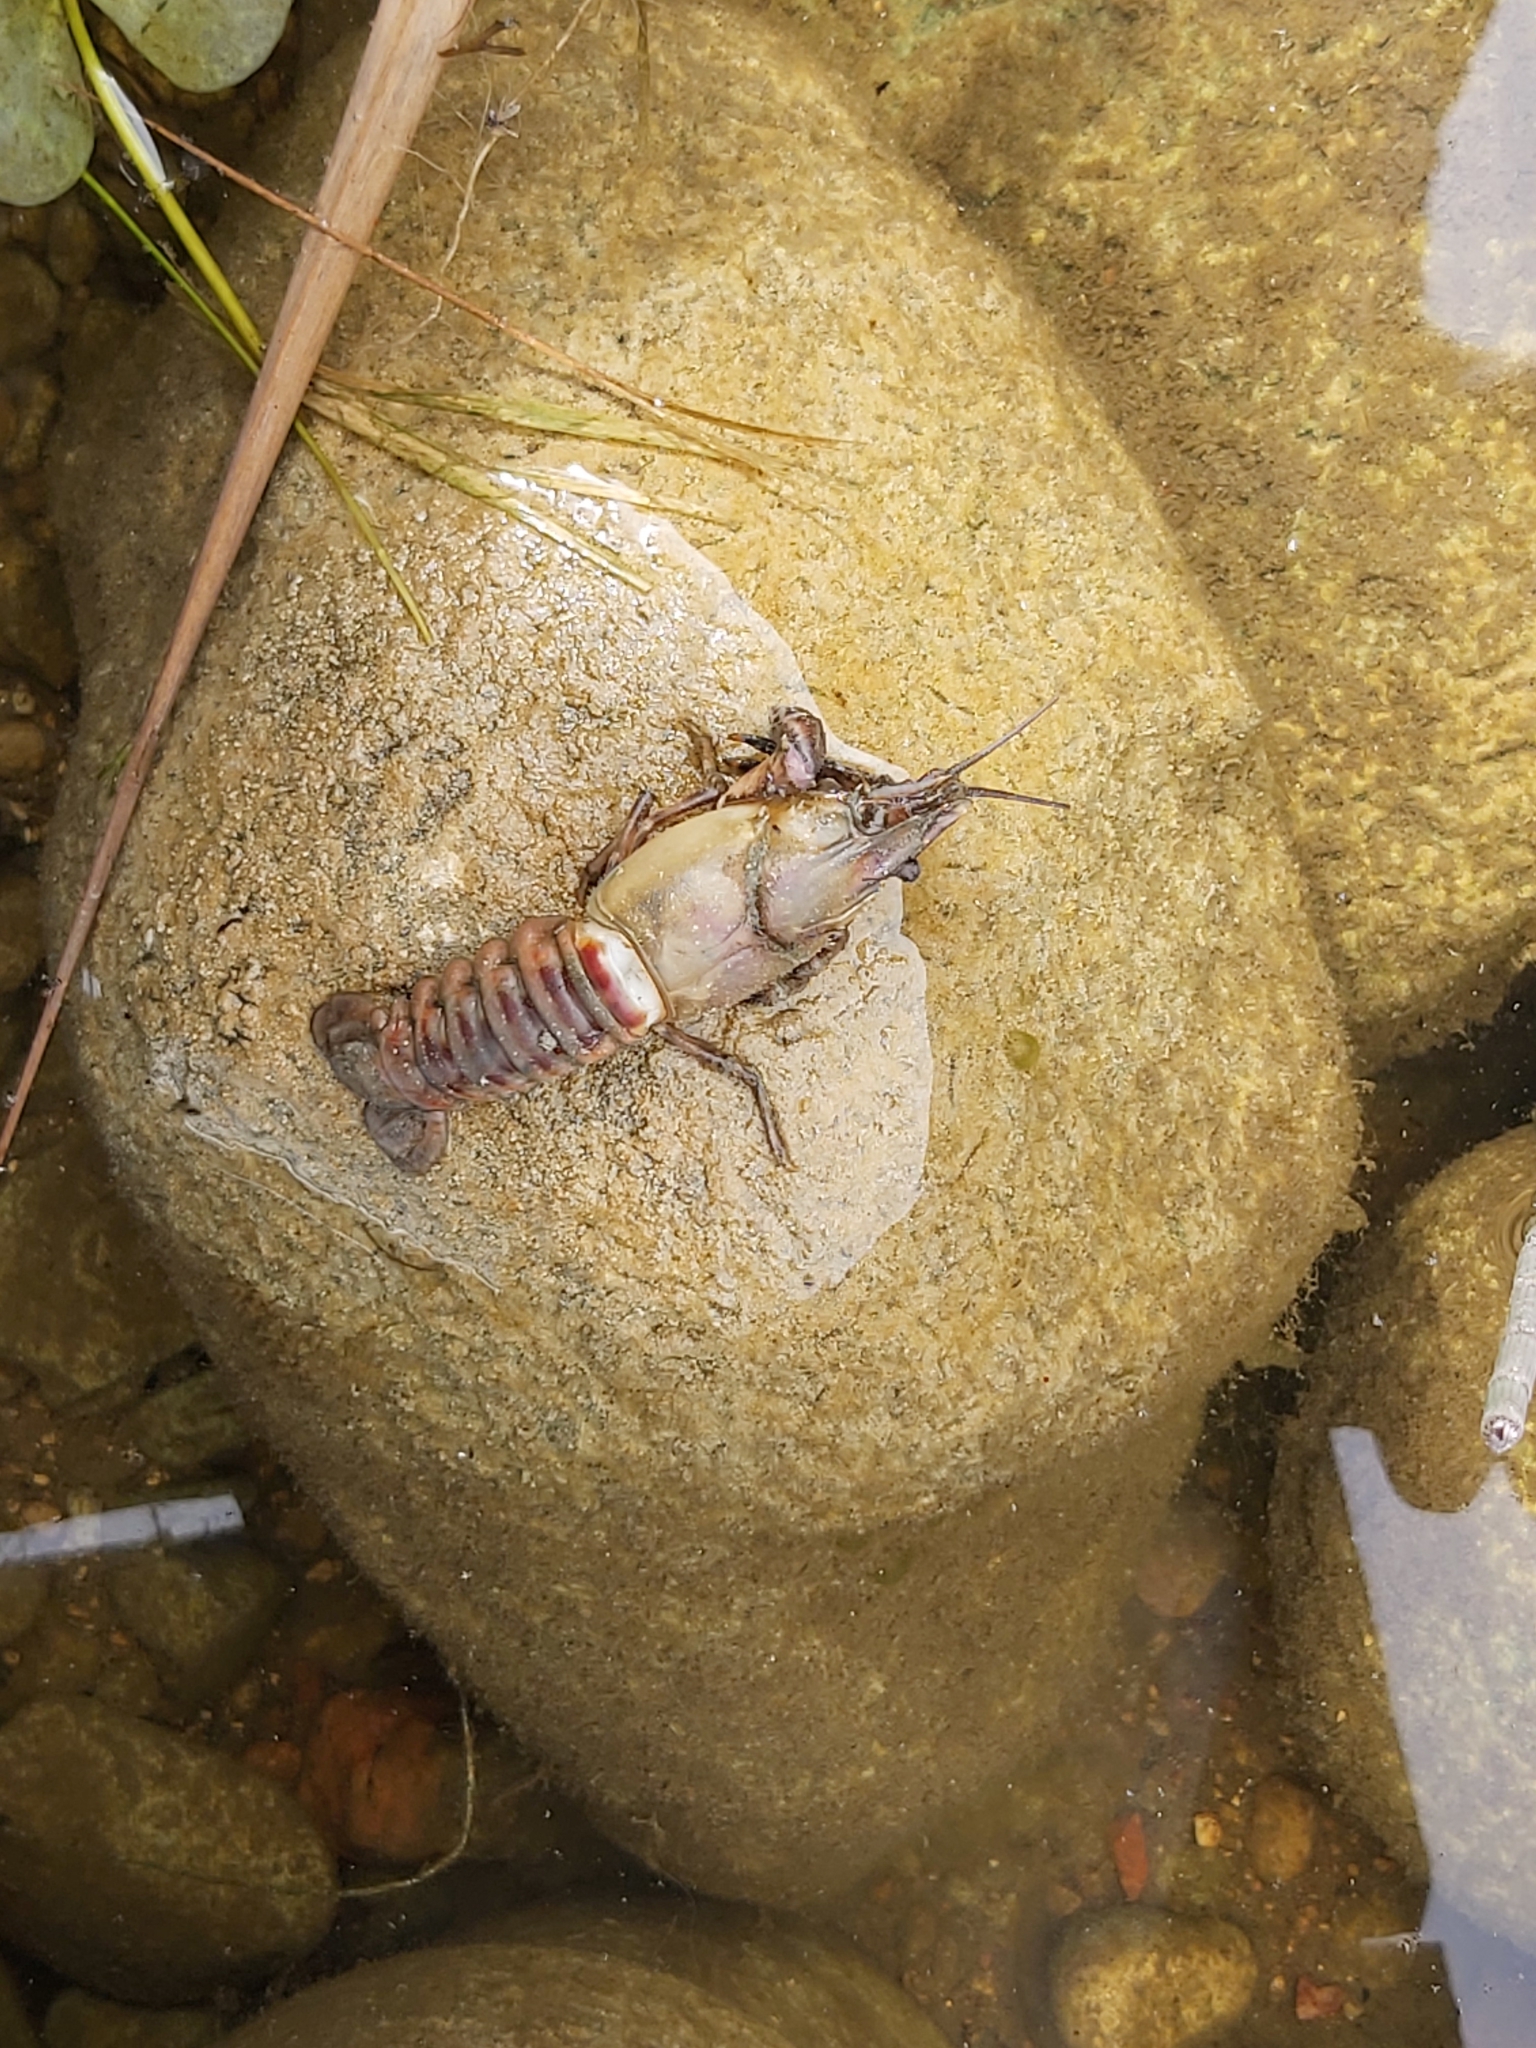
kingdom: Animalia
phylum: Arthropoda
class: Malacostraca
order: Decapoda
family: Cambaridae
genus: Faxonius
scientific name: Faxonius limosus
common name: American crayfish
